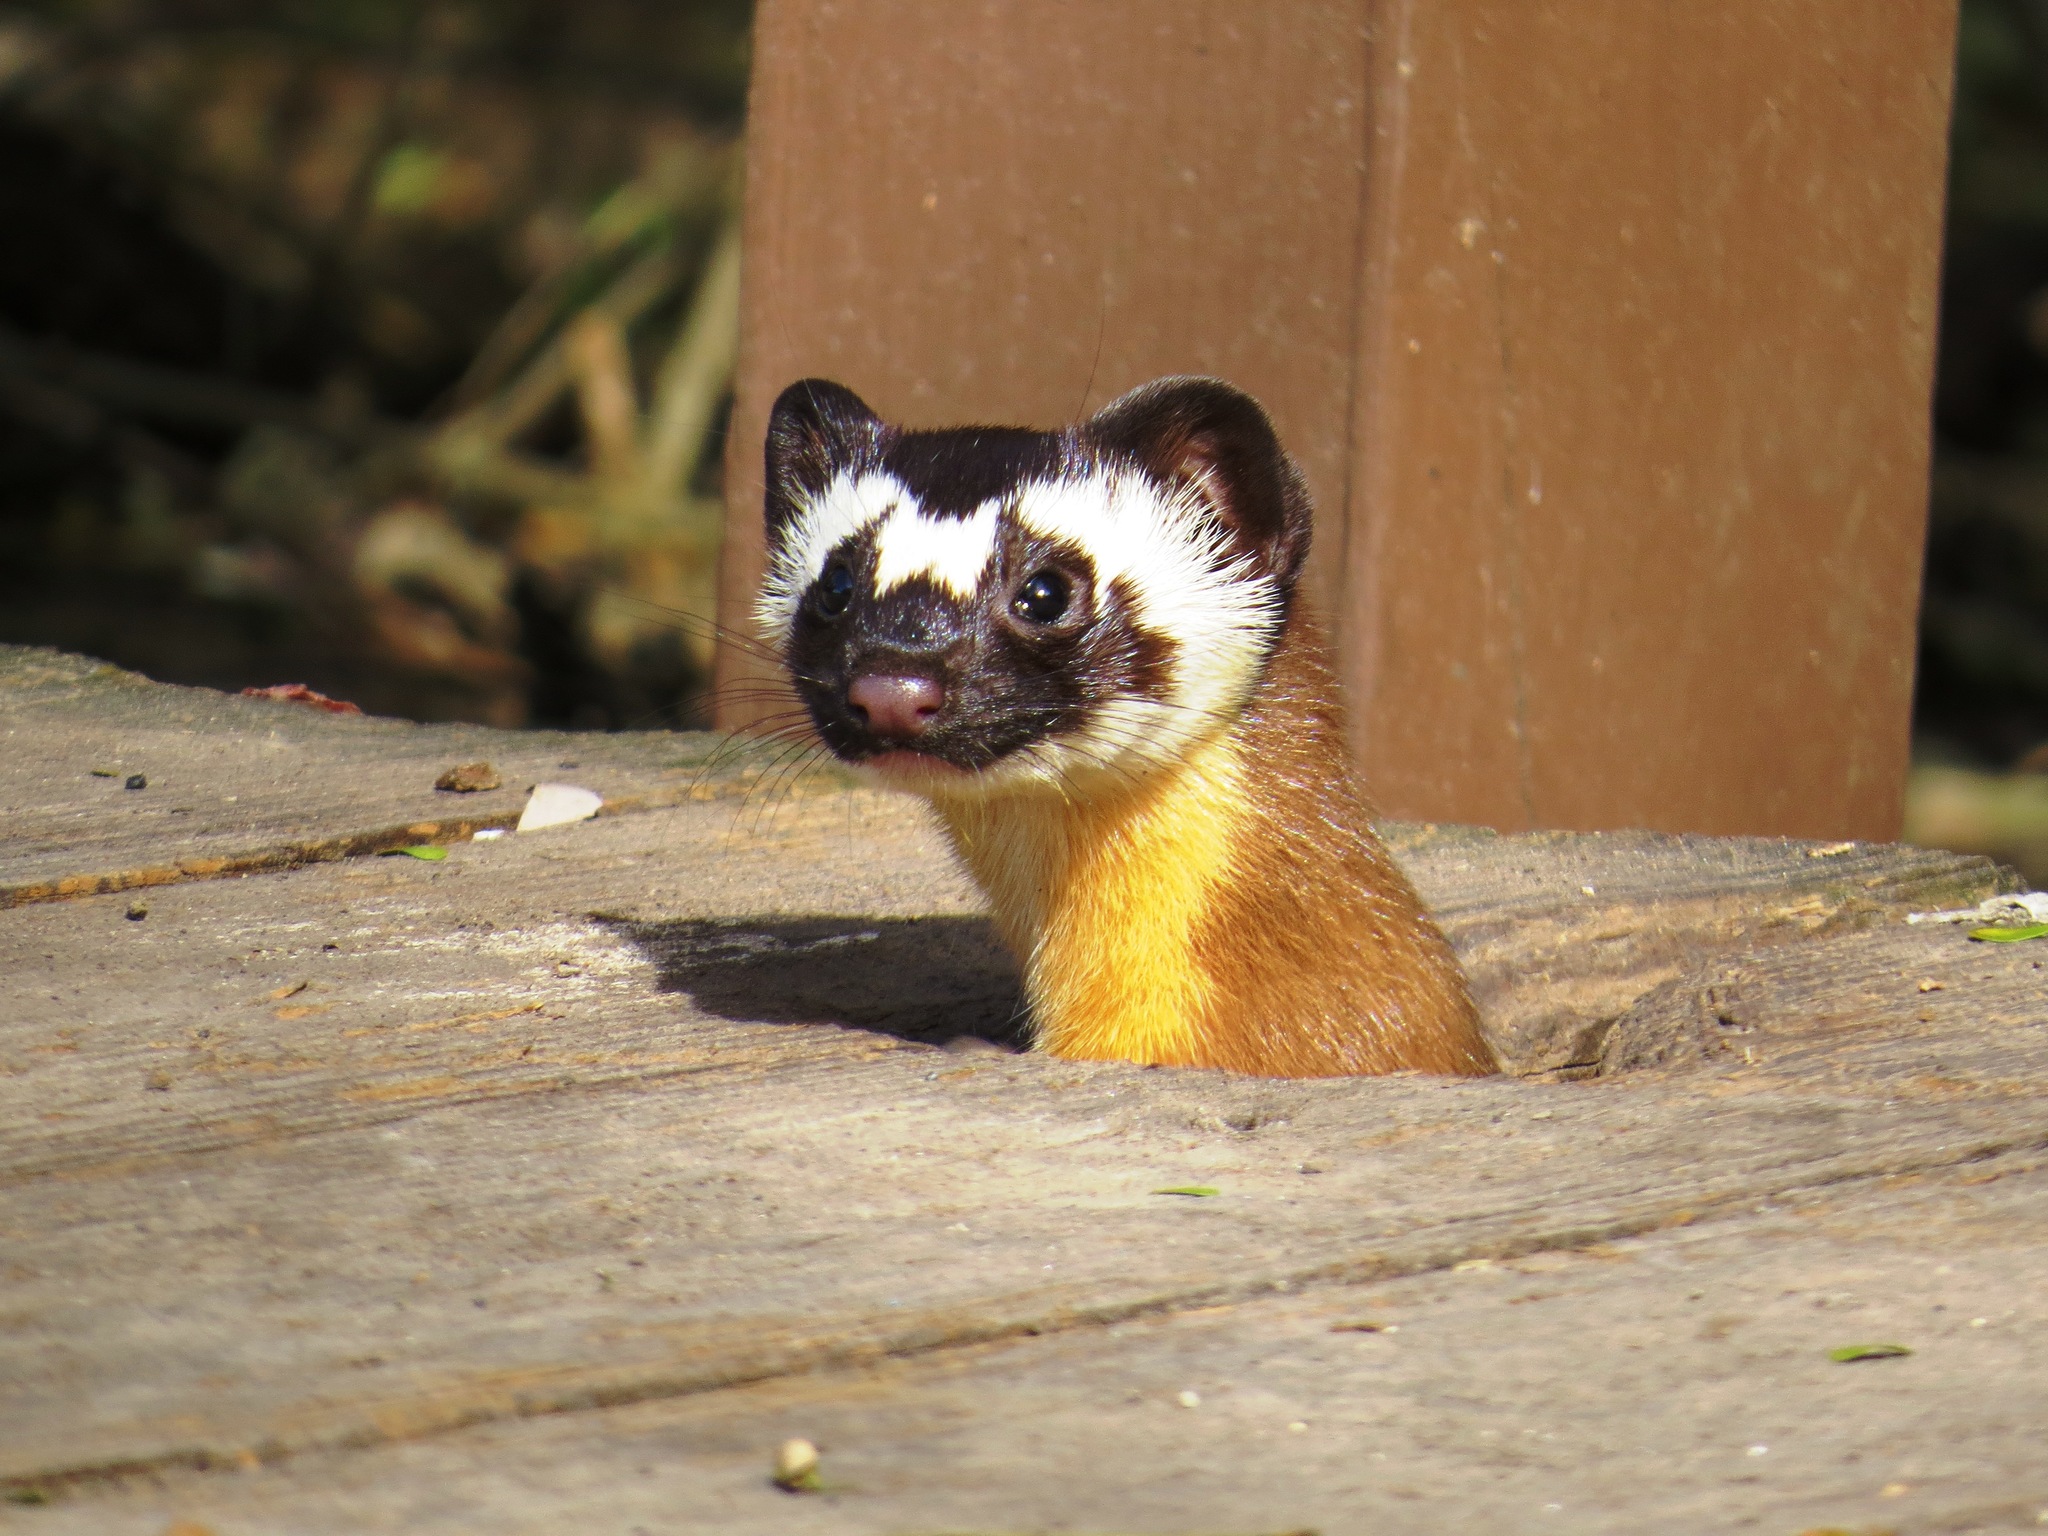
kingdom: Animalia
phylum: Chordata
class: Mammalia
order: Carnivora
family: Mustelidae
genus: Mustela
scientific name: Mustela
